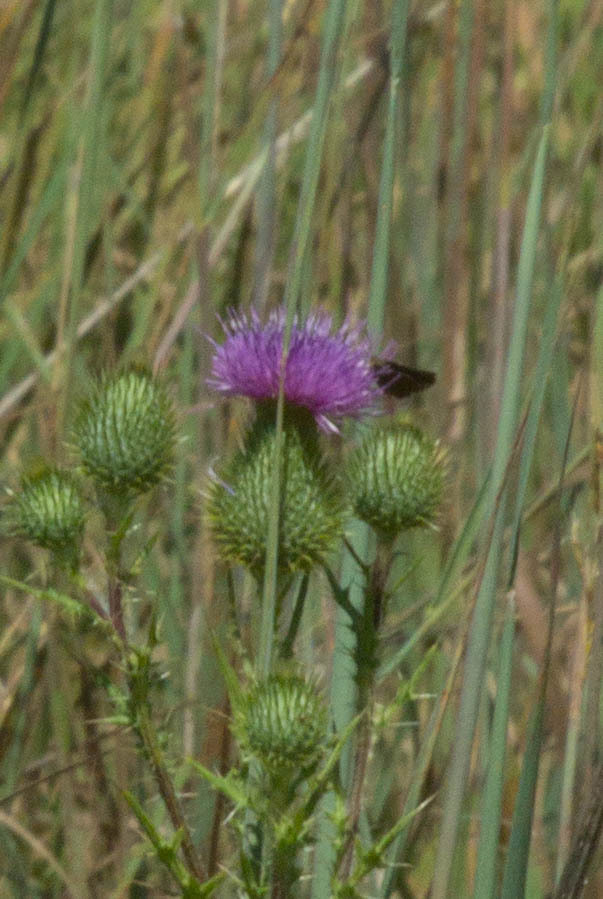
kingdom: Plantae
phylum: Tracheophyta
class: Magnoliopsida
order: Asterales
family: Asteraceae
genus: Cirsium
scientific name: Cirsium vulgare
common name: Bull thistle
